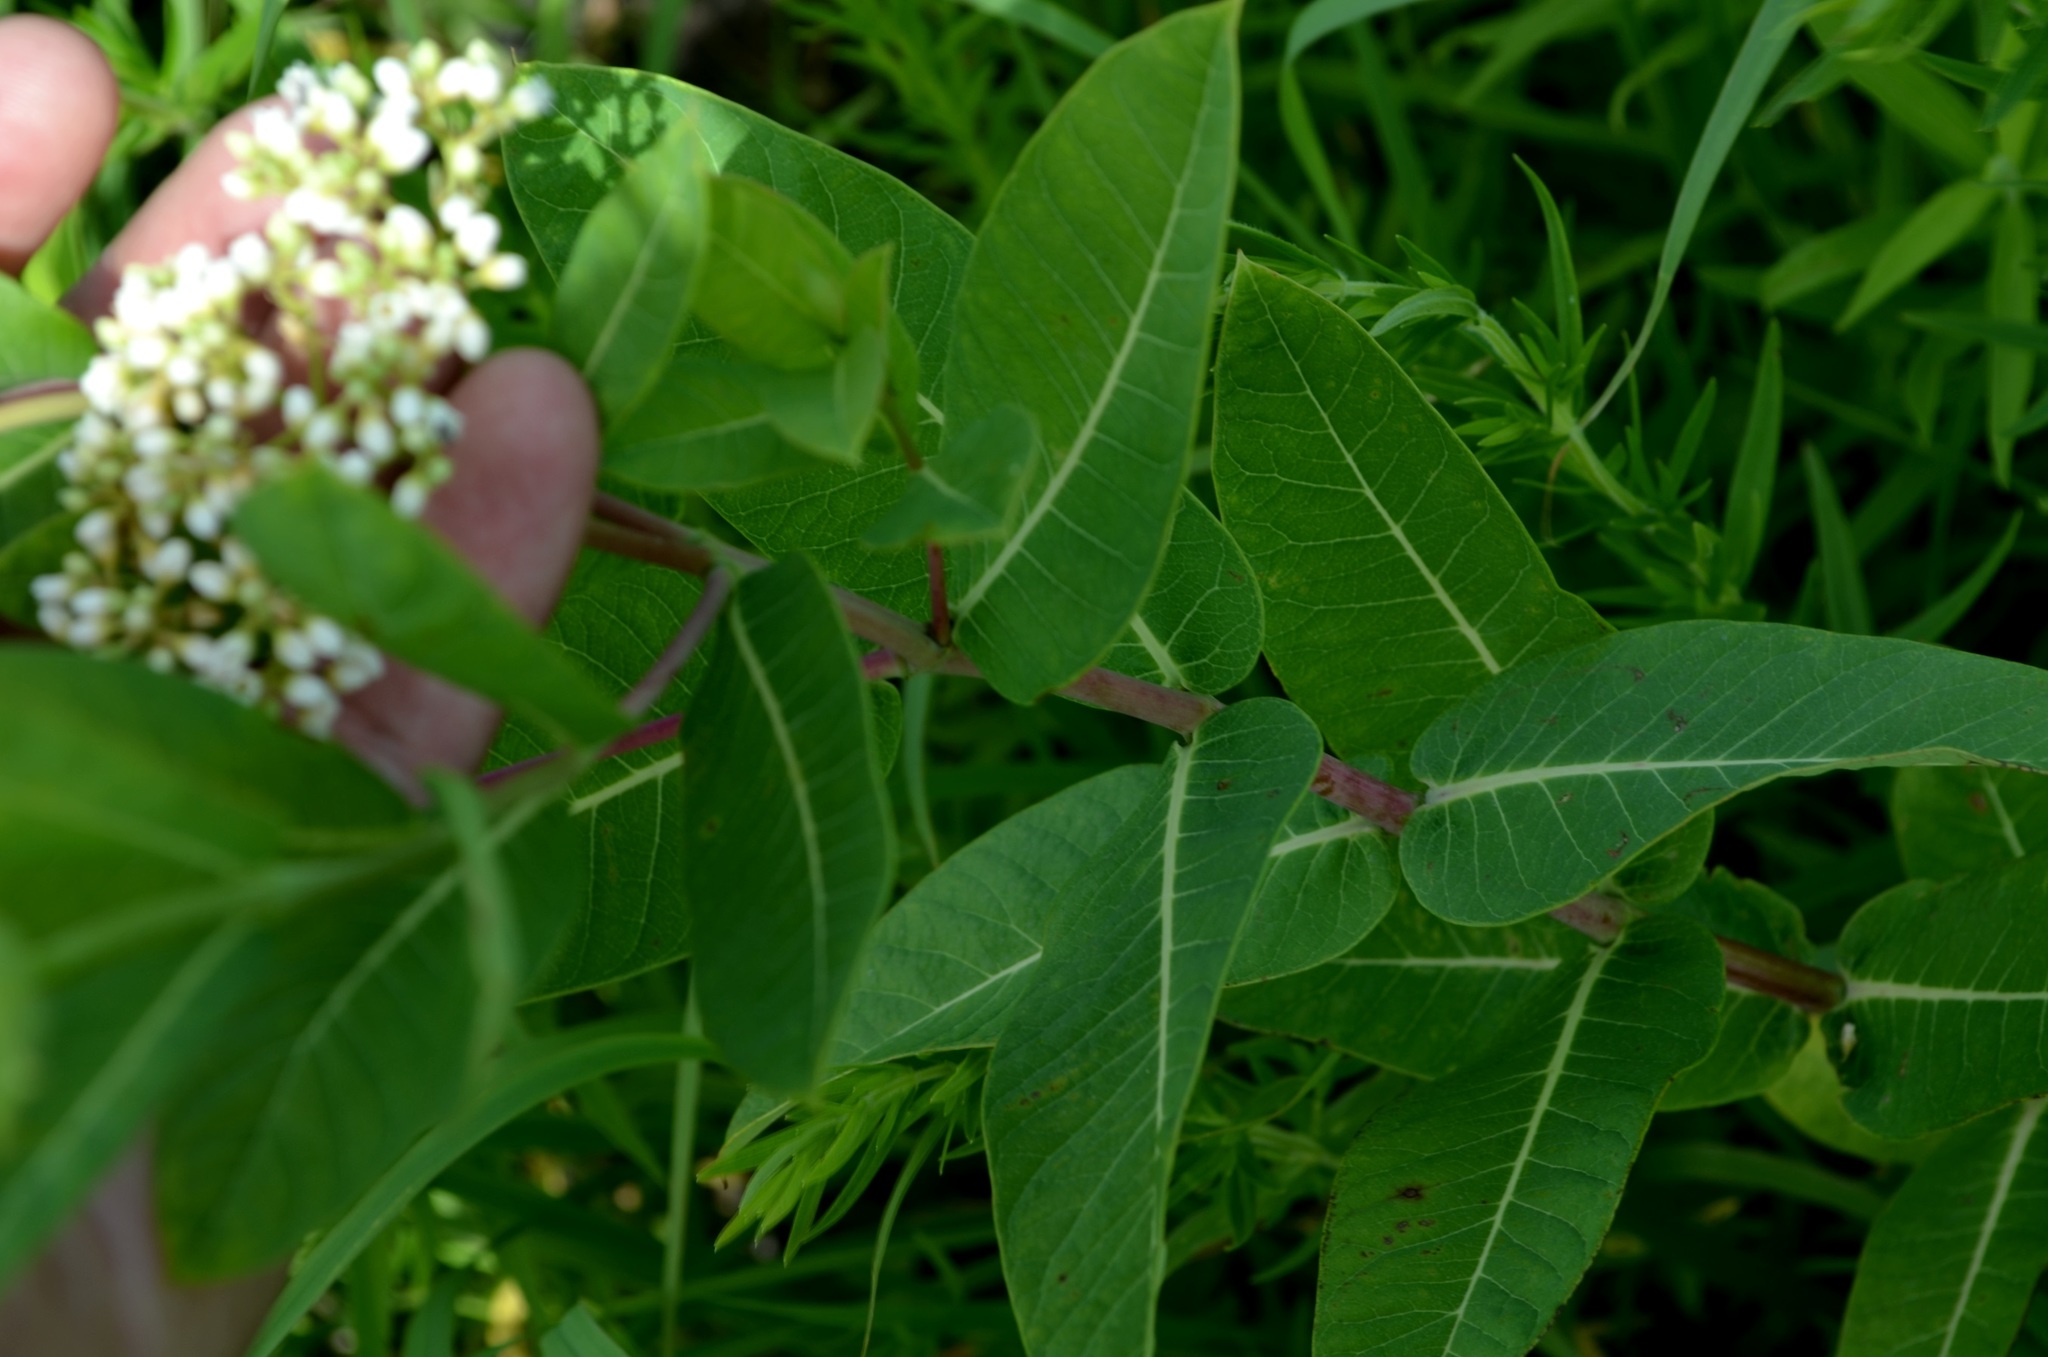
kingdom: Plantae
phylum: Tracheophyta
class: Magnoliopsida
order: Gentianales
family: Apocynaceae
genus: Apocynum
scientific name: Apocynum cannabinum
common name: Hemp dogbane
